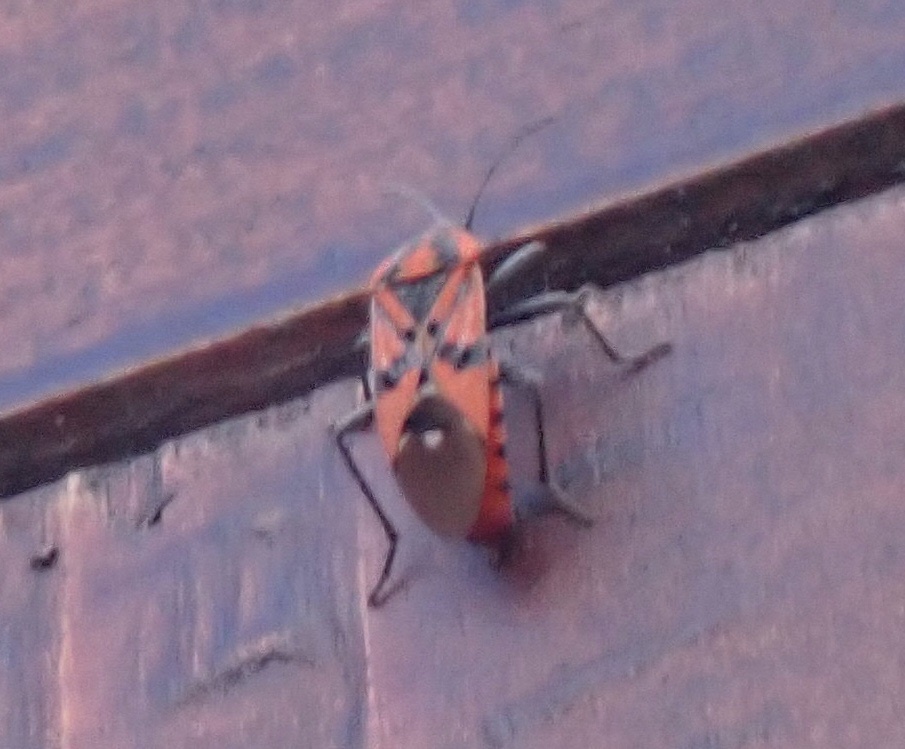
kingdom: Animalia
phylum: Arthropoda
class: Insecta
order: Hemiptera
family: Lygaeidae
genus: Spilostethus
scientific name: Spilostethus pandurus
